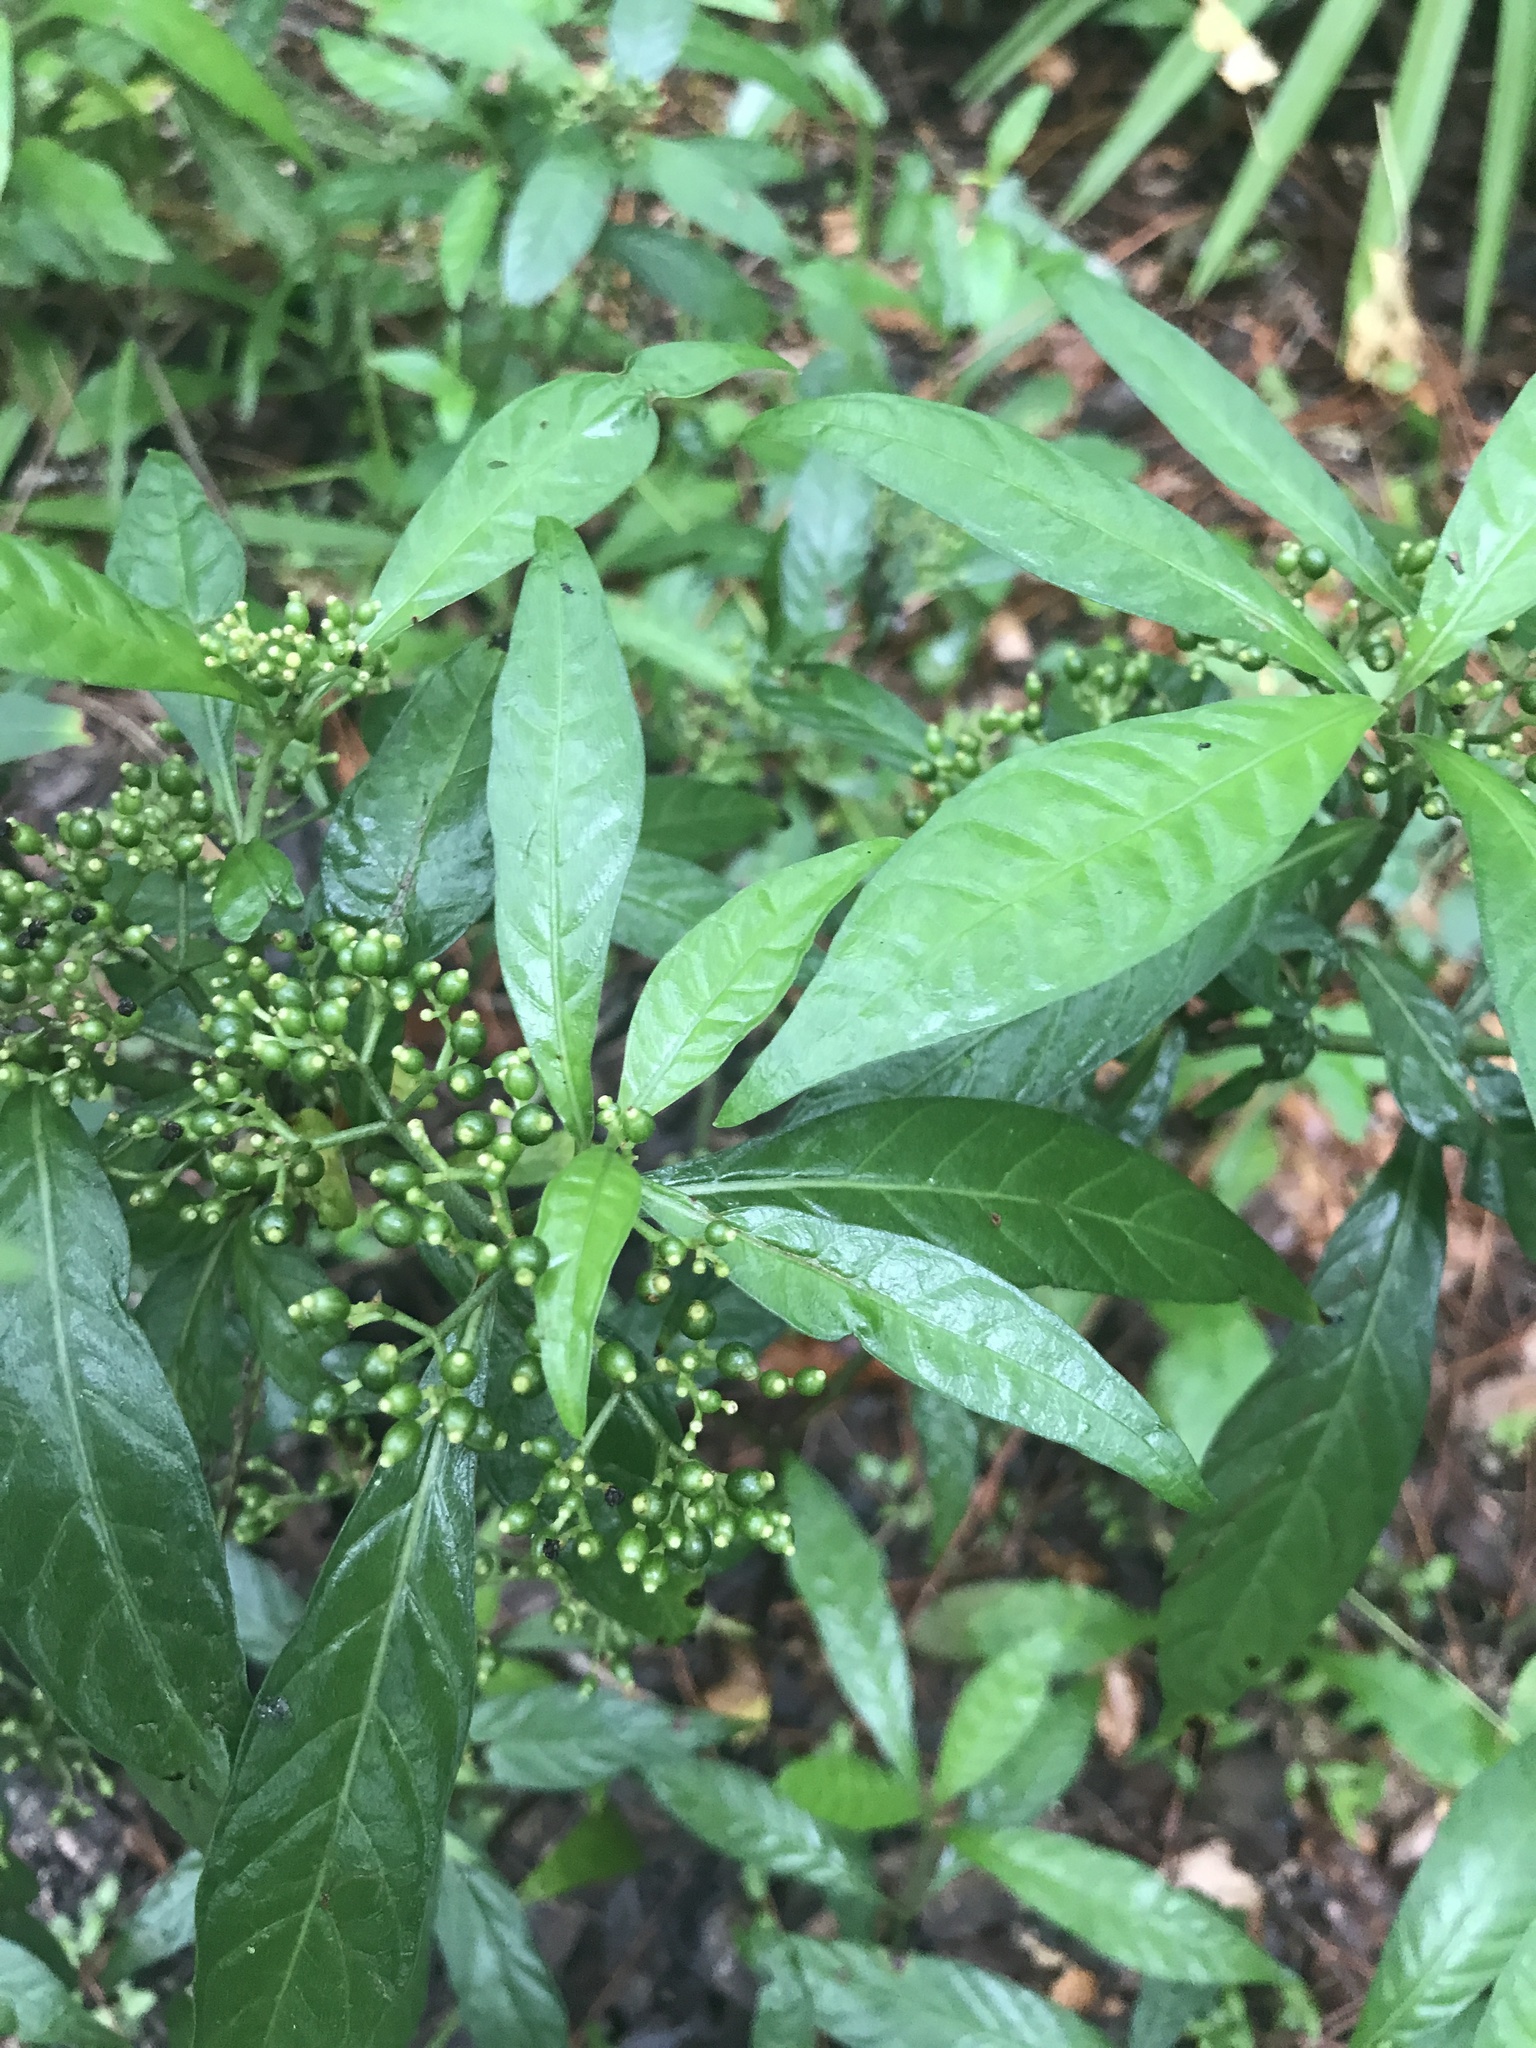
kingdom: Plantae
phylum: Tracheophyta
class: Magnoliopsida
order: Gentianales
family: Rubiaceae
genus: Psychotria
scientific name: Psychotria tenuifolia
